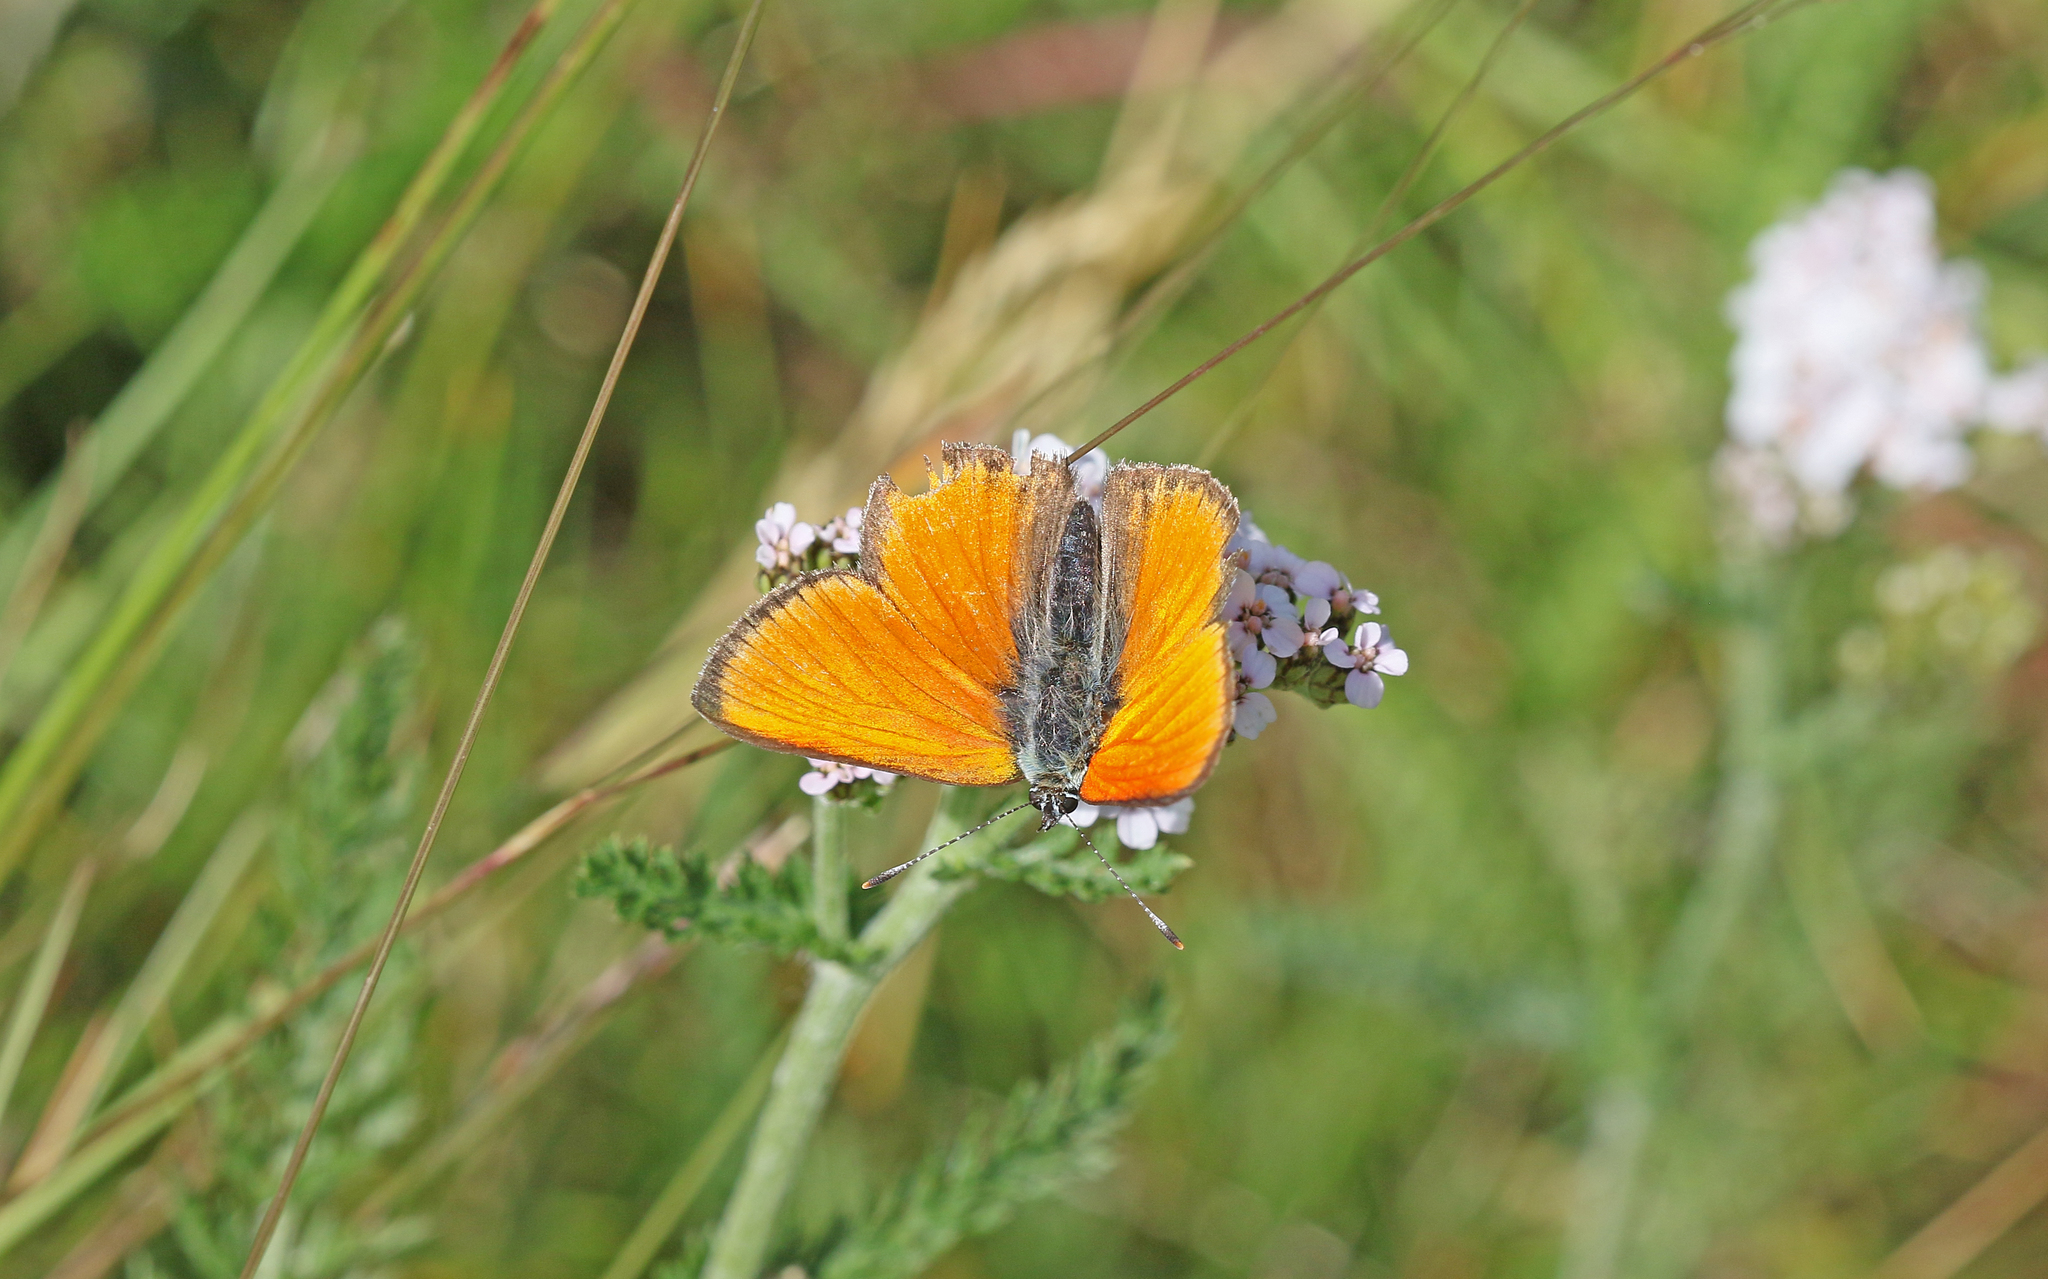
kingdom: Animalia
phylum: Arthropoda
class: Insecta
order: Lepidoptera
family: Lycaenidae
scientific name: Lycaenidae
